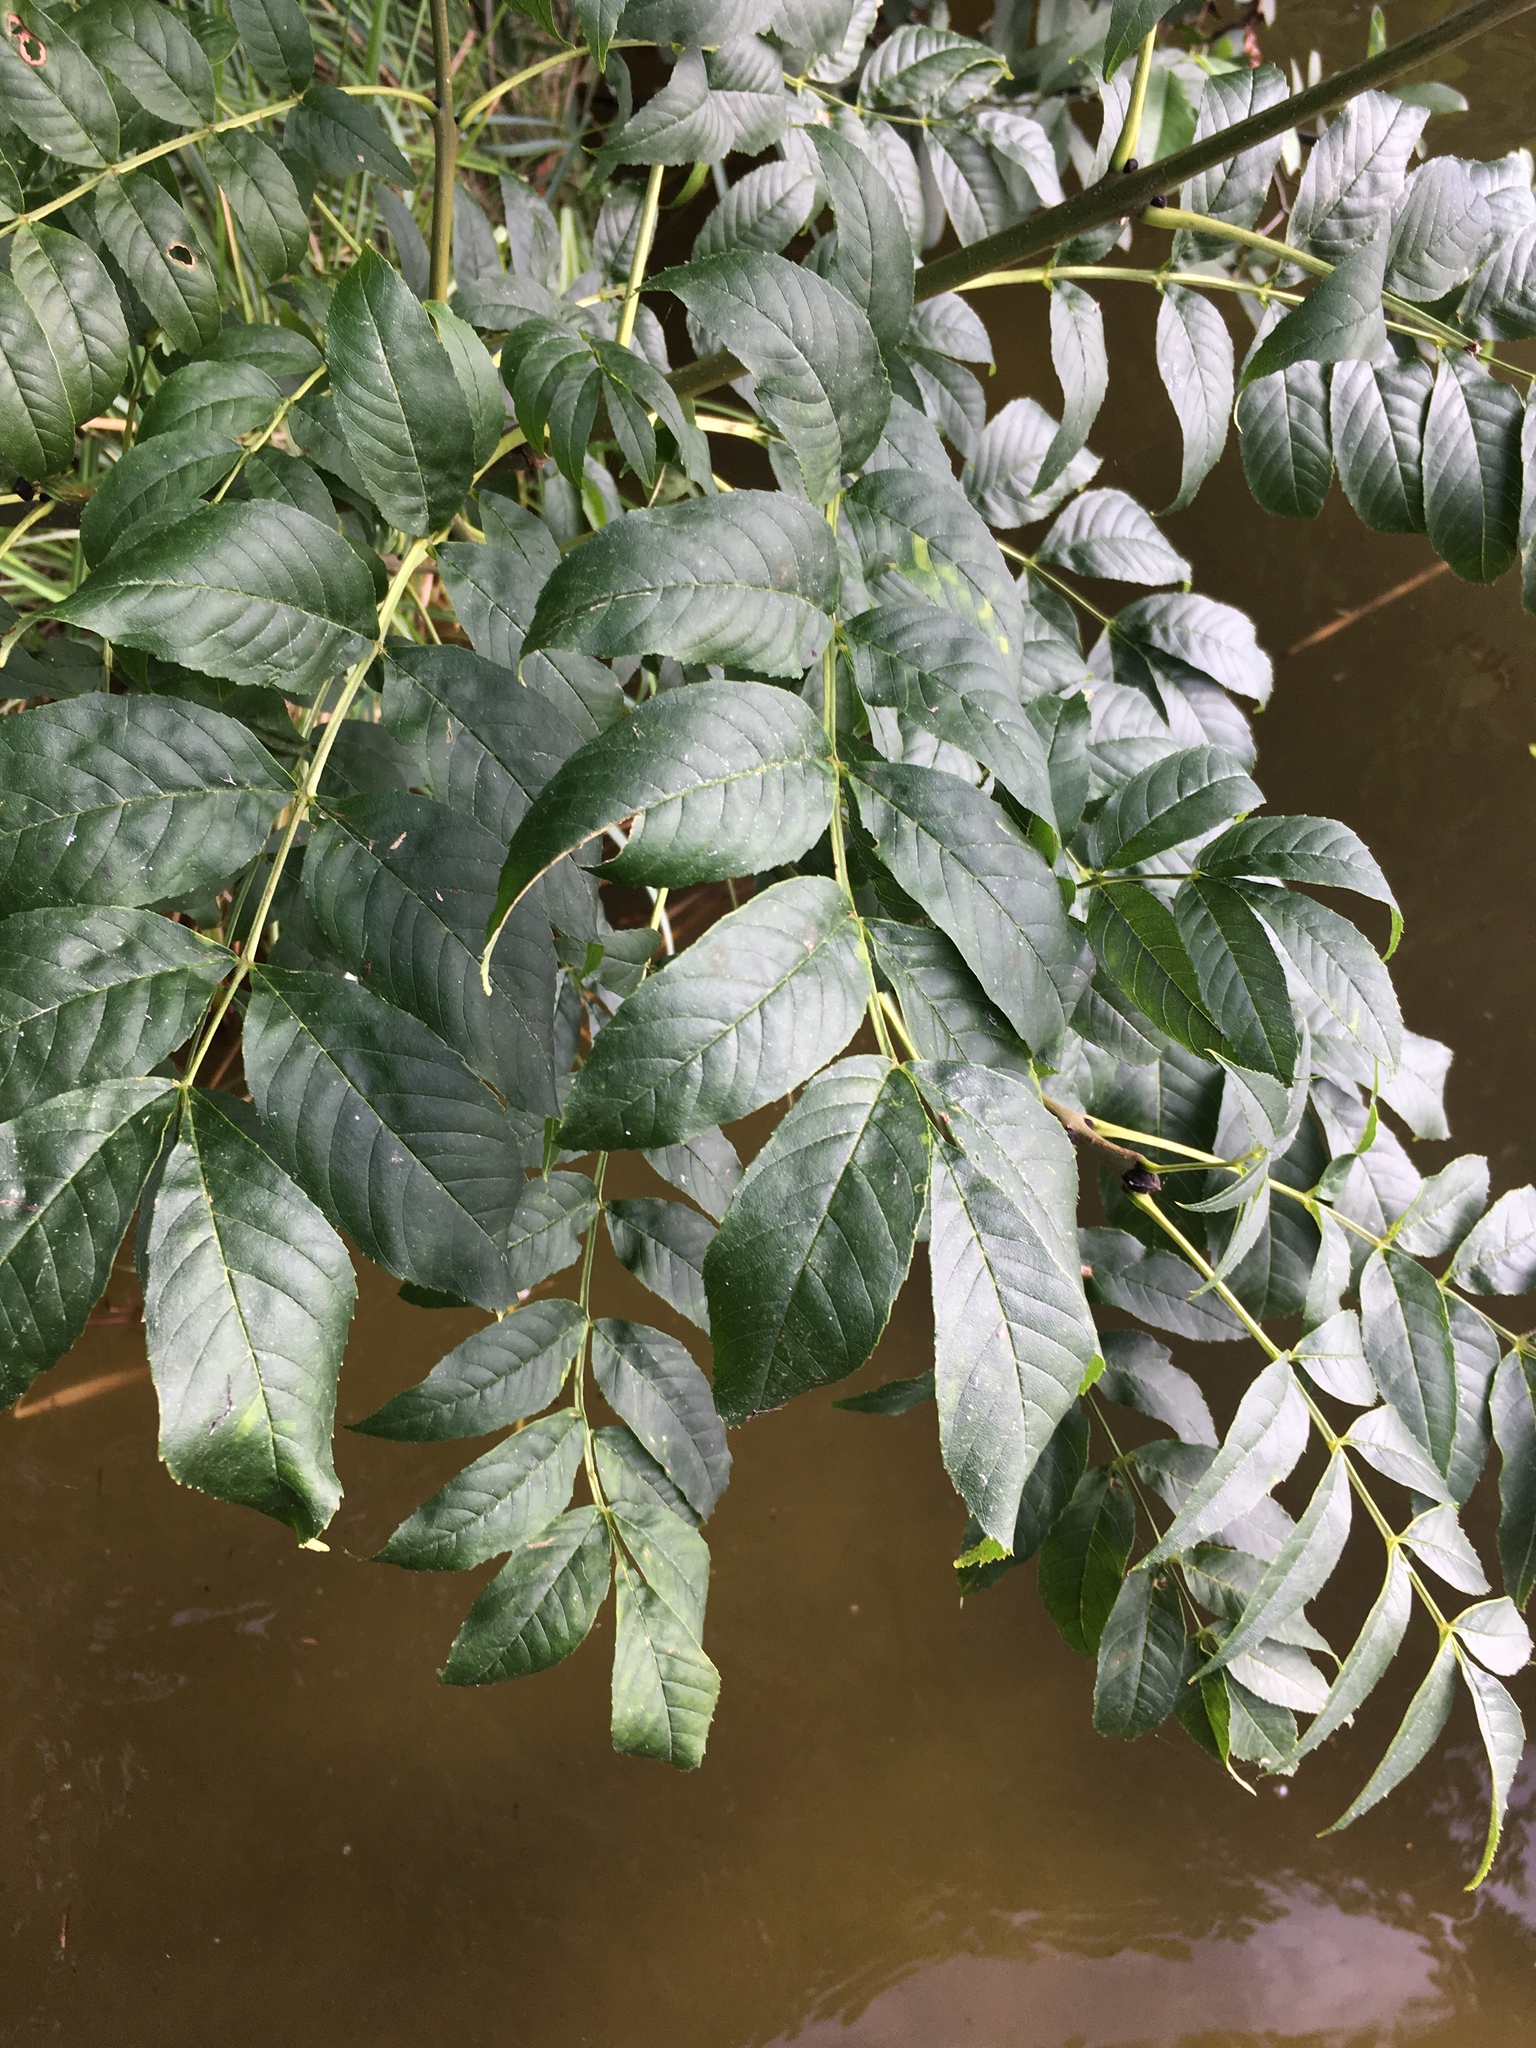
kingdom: Plantae
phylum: Tracheophyta
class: Magnoliopsida
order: Lamiales
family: Oleaceae
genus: Fraxinus
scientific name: Fraxinus excelsior
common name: European ash
